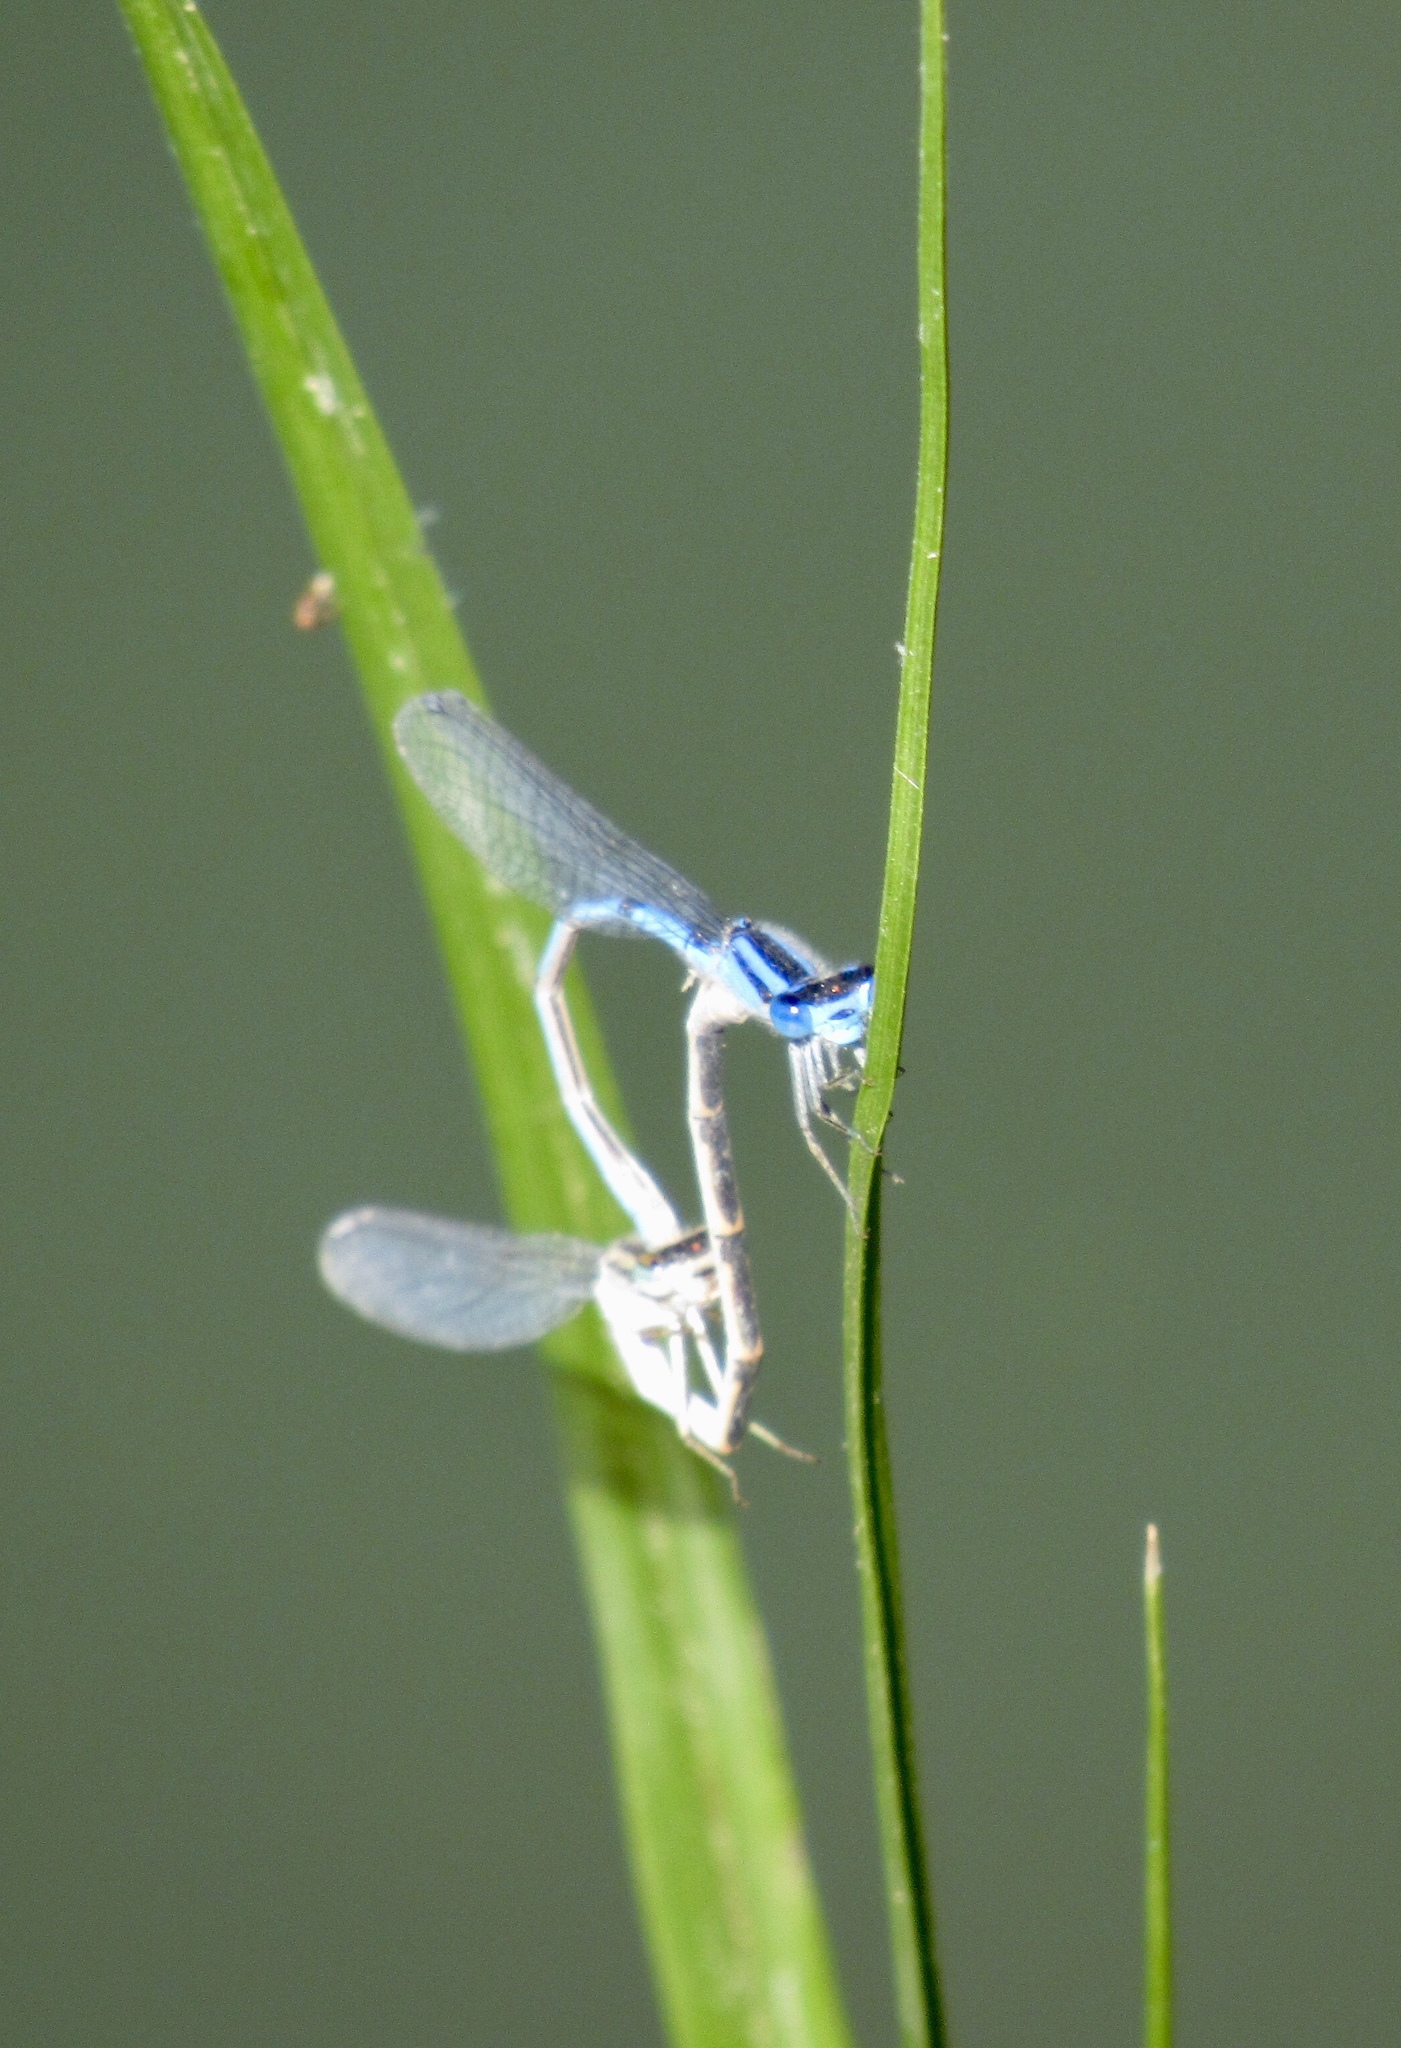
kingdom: Animalia
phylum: Arthropoda
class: Insecta
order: Odonata
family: Coenagrionidae
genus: Enallagma
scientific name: Enallagma civile
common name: Damselfly
